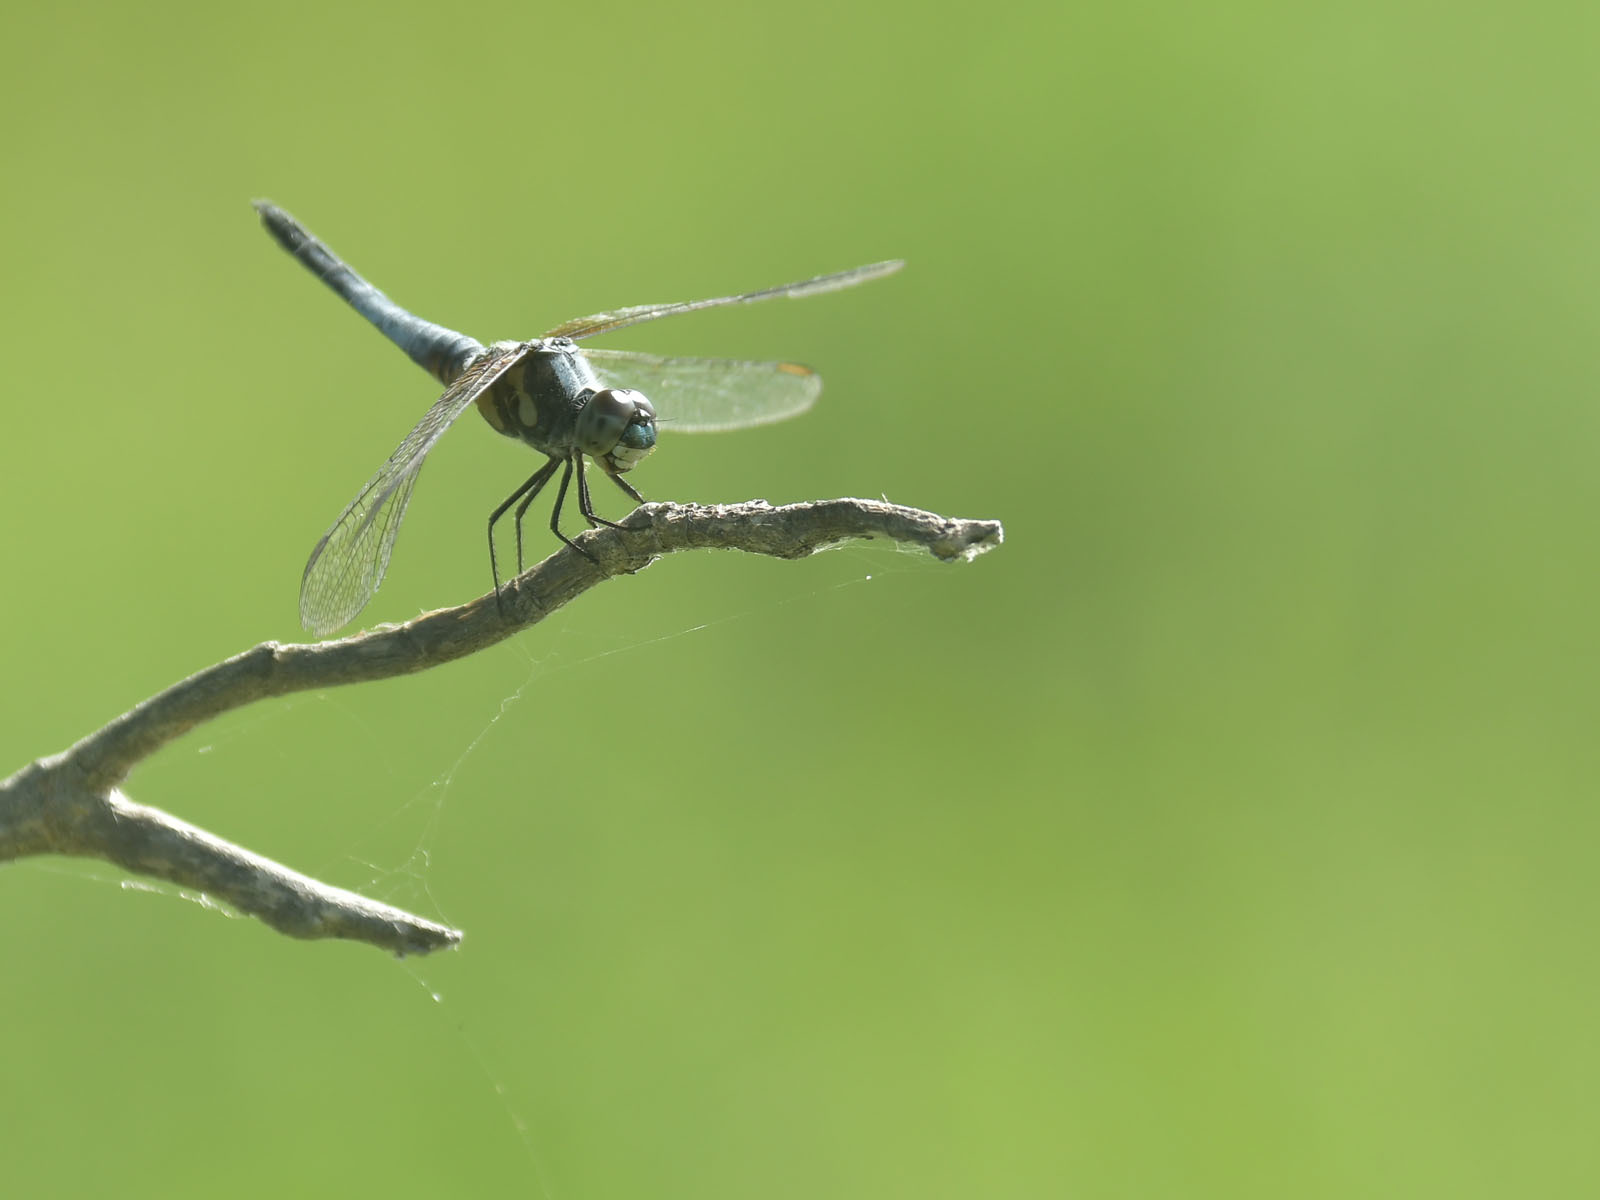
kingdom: Animalia
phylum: Arthropoda
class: Insecta
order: Odonata
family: Libellulidae
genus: Brachydiplax
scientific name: Brachydiplax chalybea
